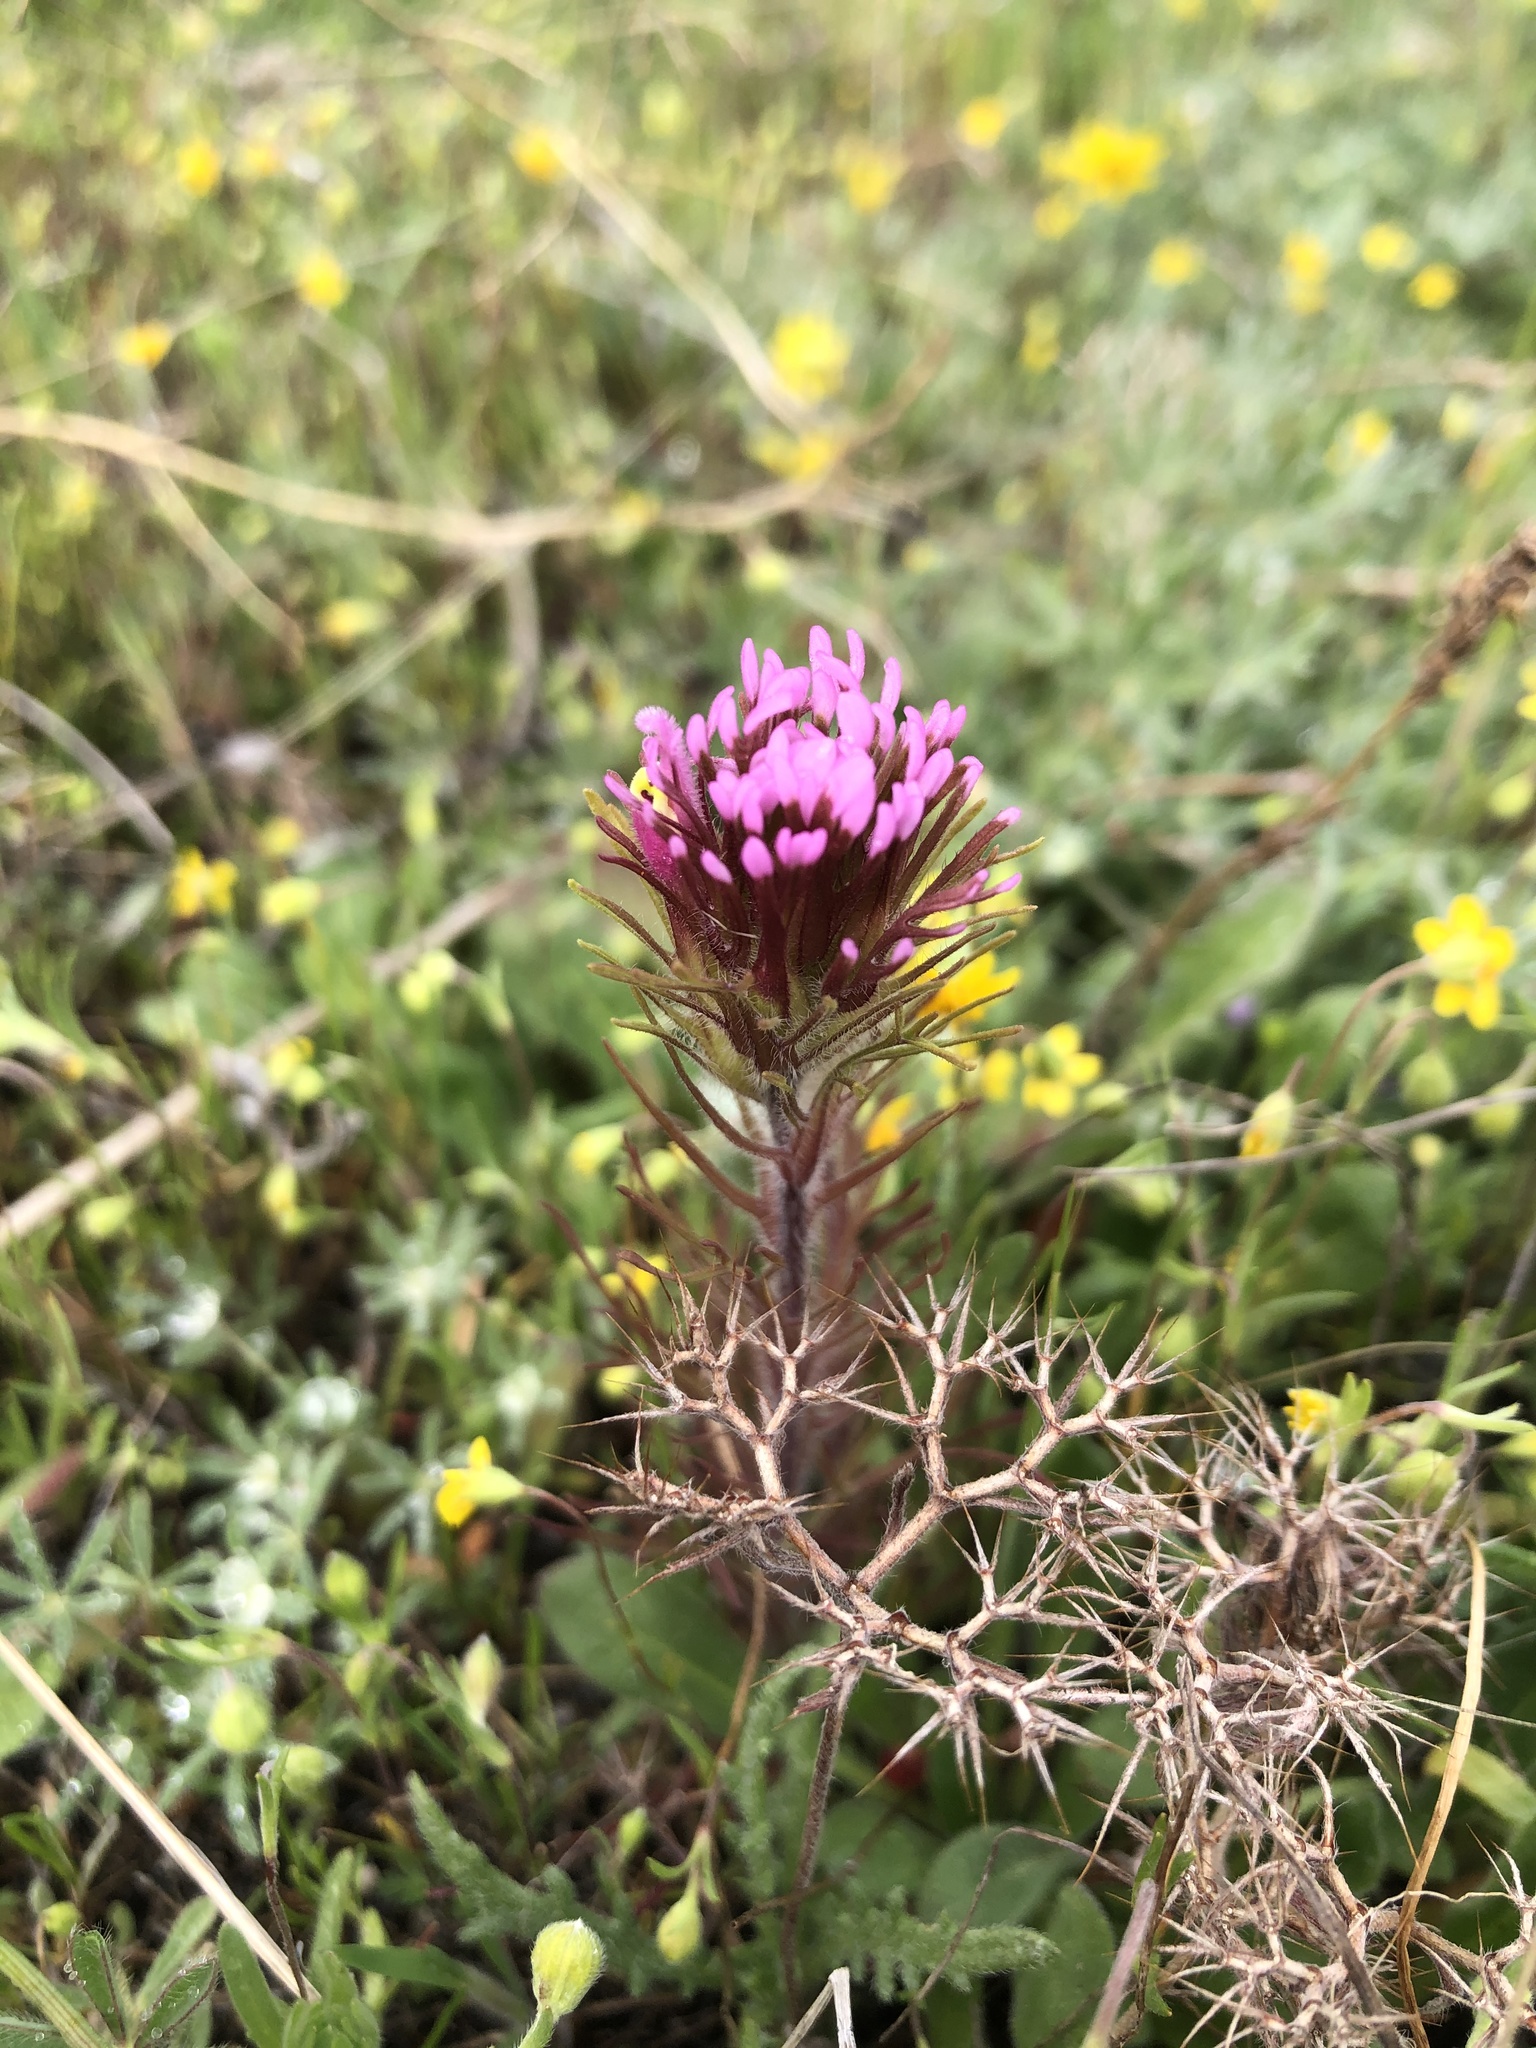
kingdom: Plantae
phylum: Tracheophyta
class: Magnoliopsida
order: Lamiales
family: Orobanchaceae
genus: Castilleja
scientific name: Castilleja exserta
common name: Purple owl-clover
